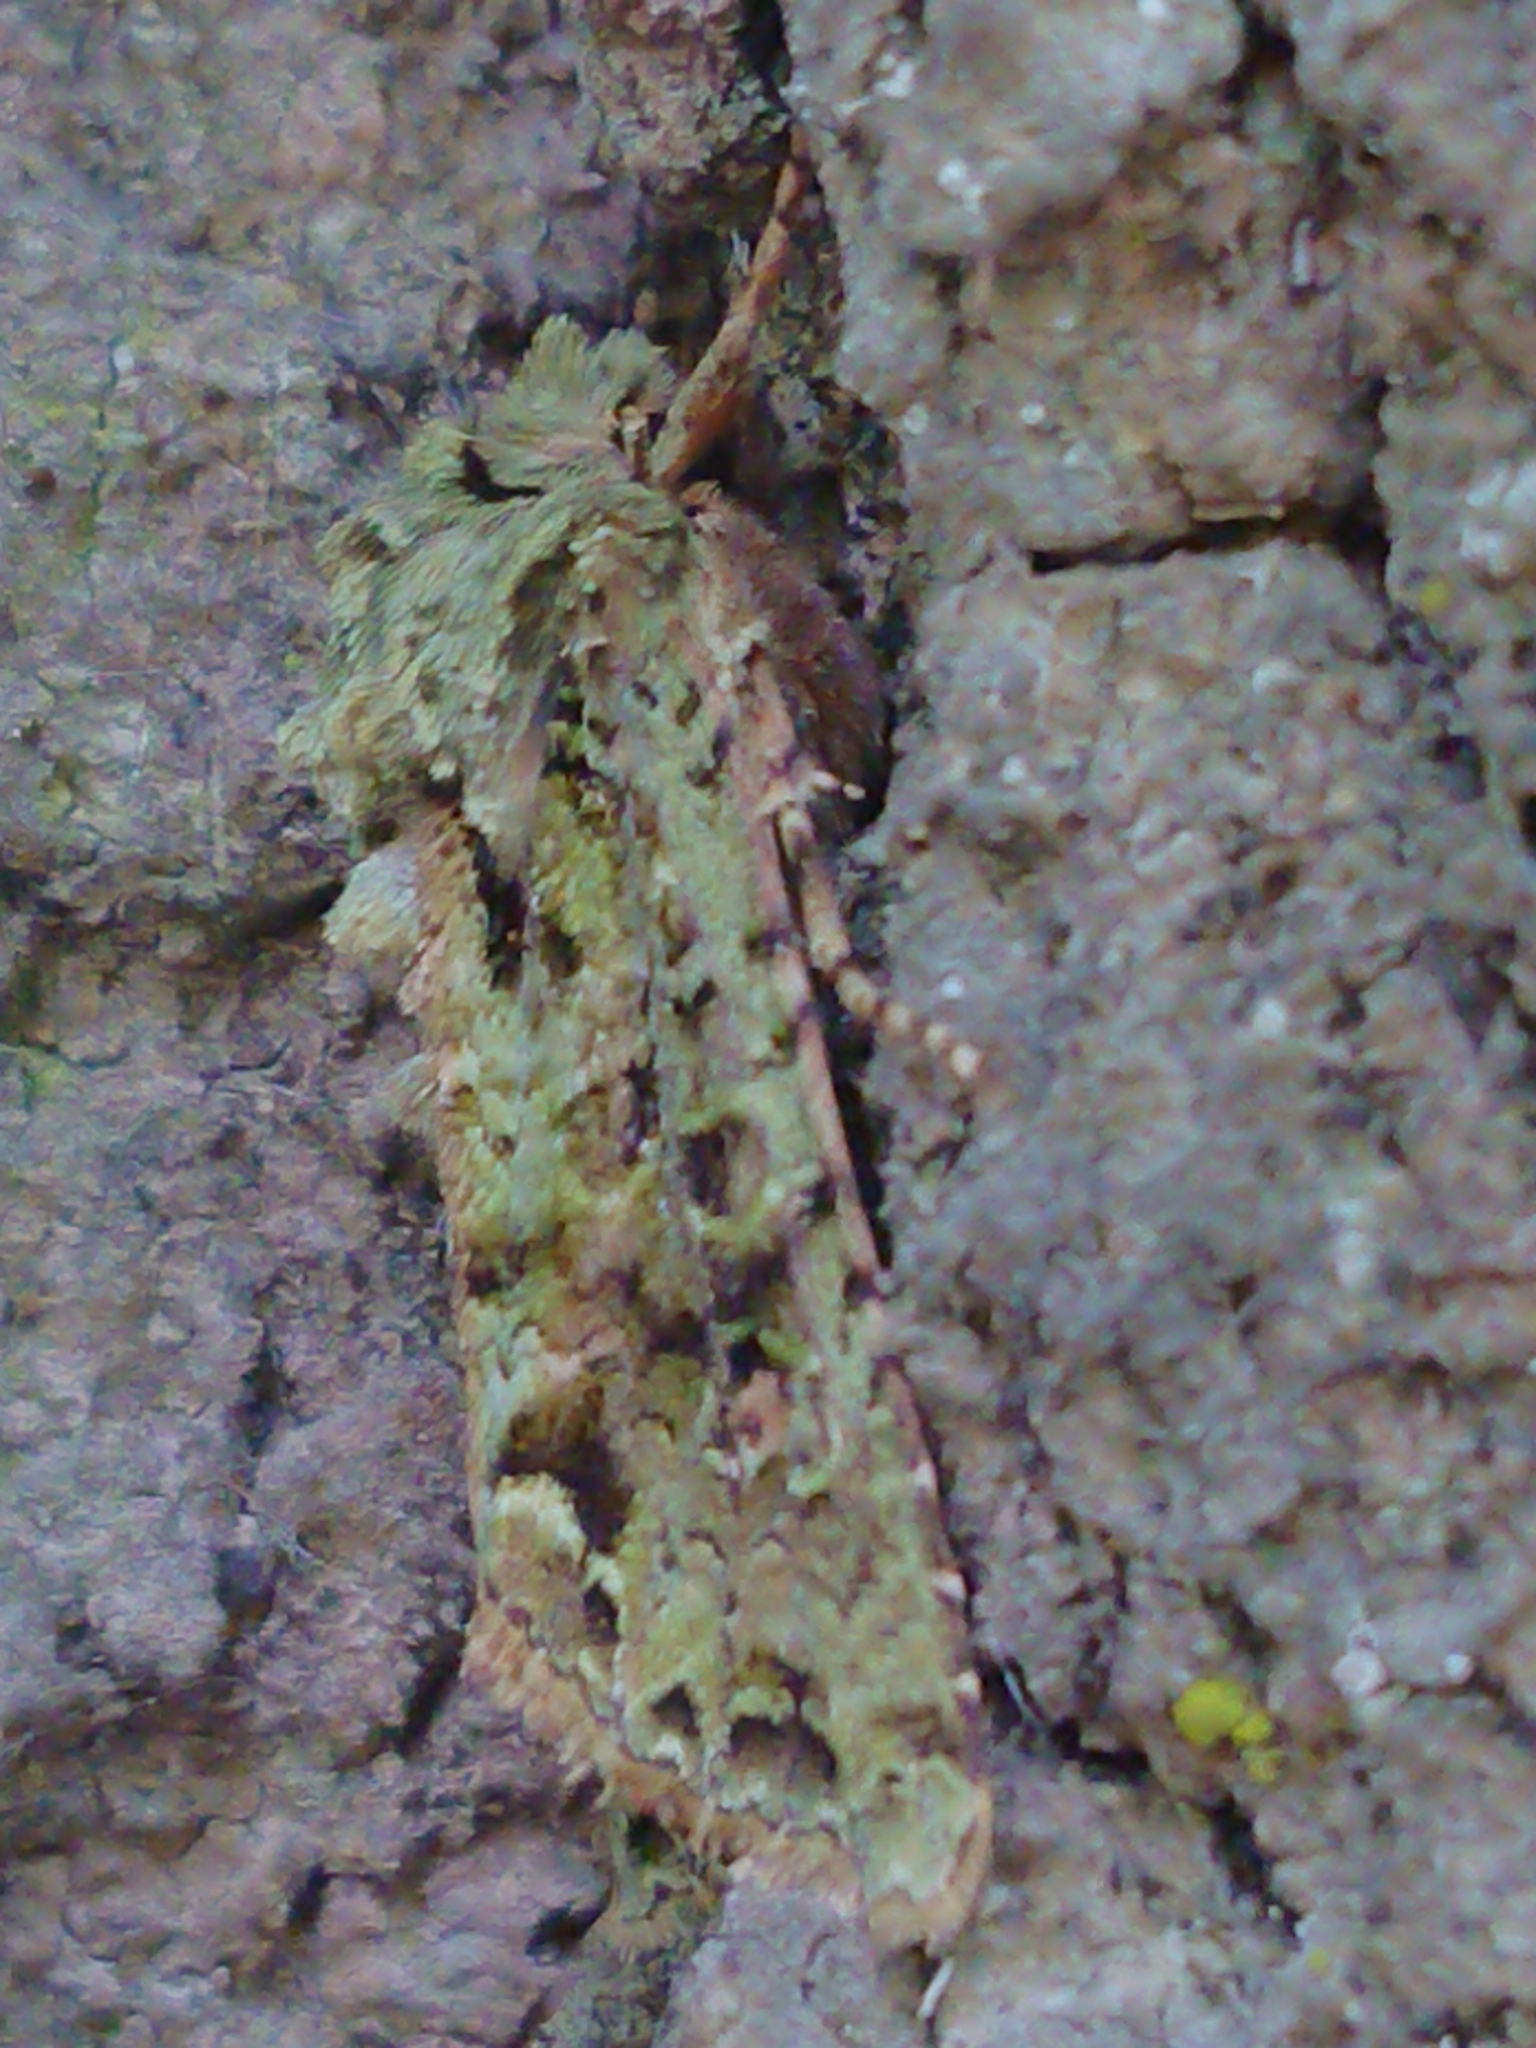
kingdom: Animalia
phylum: Arthropoda
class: Insecta
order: Lepidoptera
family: Noctuidae
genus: Ichneutica
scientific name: Ichneutica
